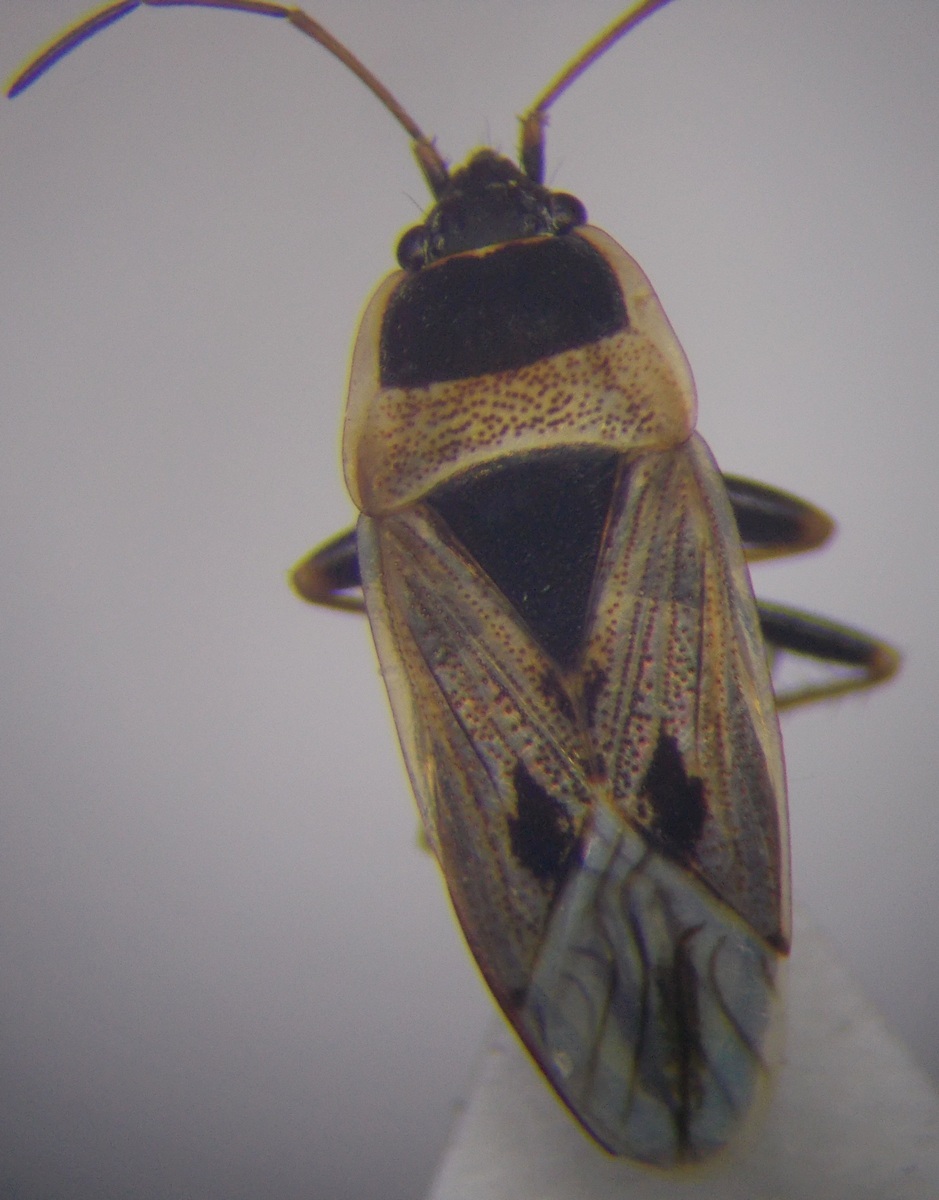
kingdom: Animalia
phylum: Arthropoda
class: Insecta
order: Hemiptera
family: Rhyparochromidae
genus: Xanthochilus
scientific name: Xanthochilus omissus
